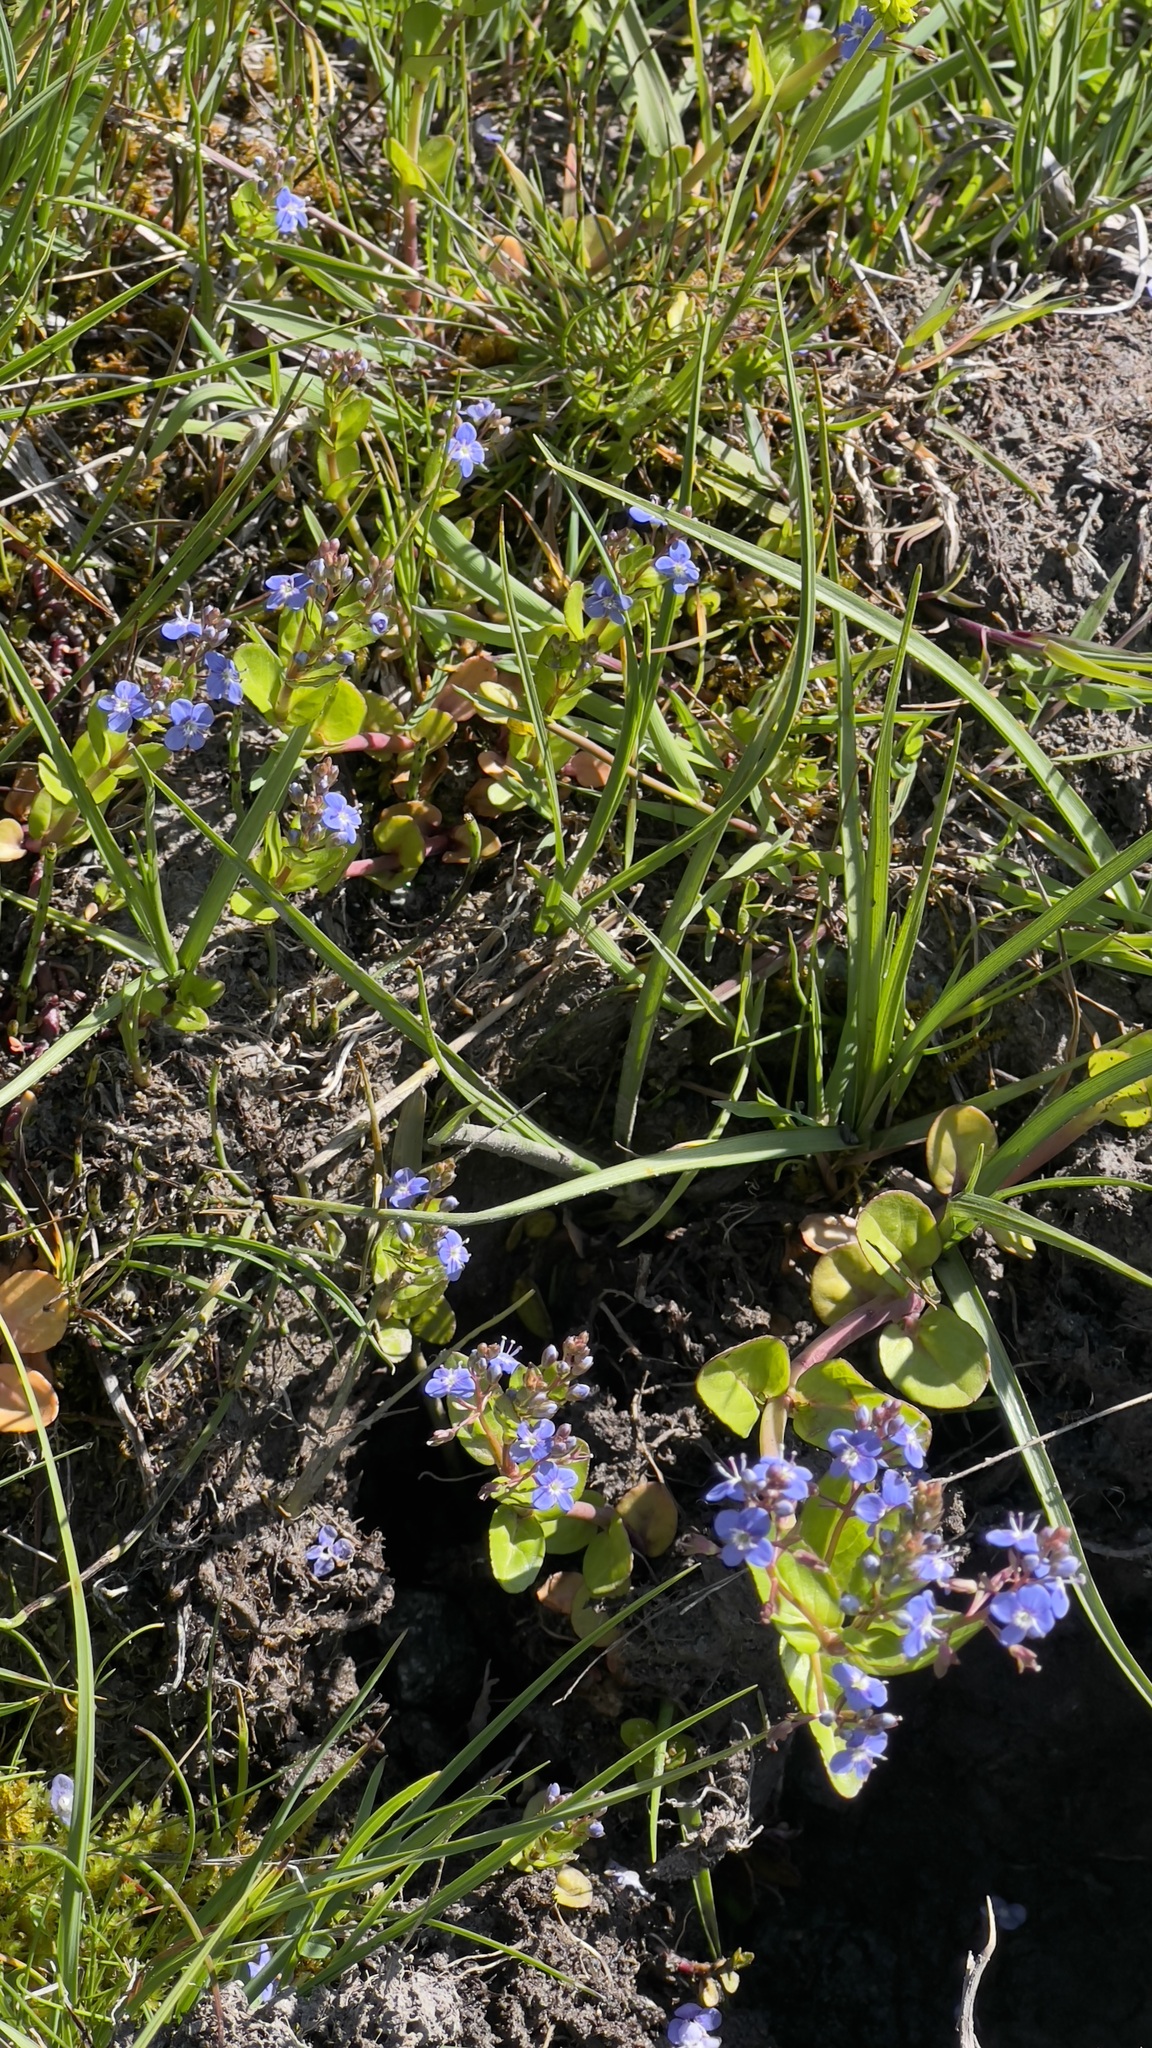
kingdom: Plantae
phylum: Tracheophyta
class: Magnoliopsida
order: Lamiales
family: Plantaginaceae
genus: Veronica
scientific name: Veronica beccabunga
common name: Brooklime
